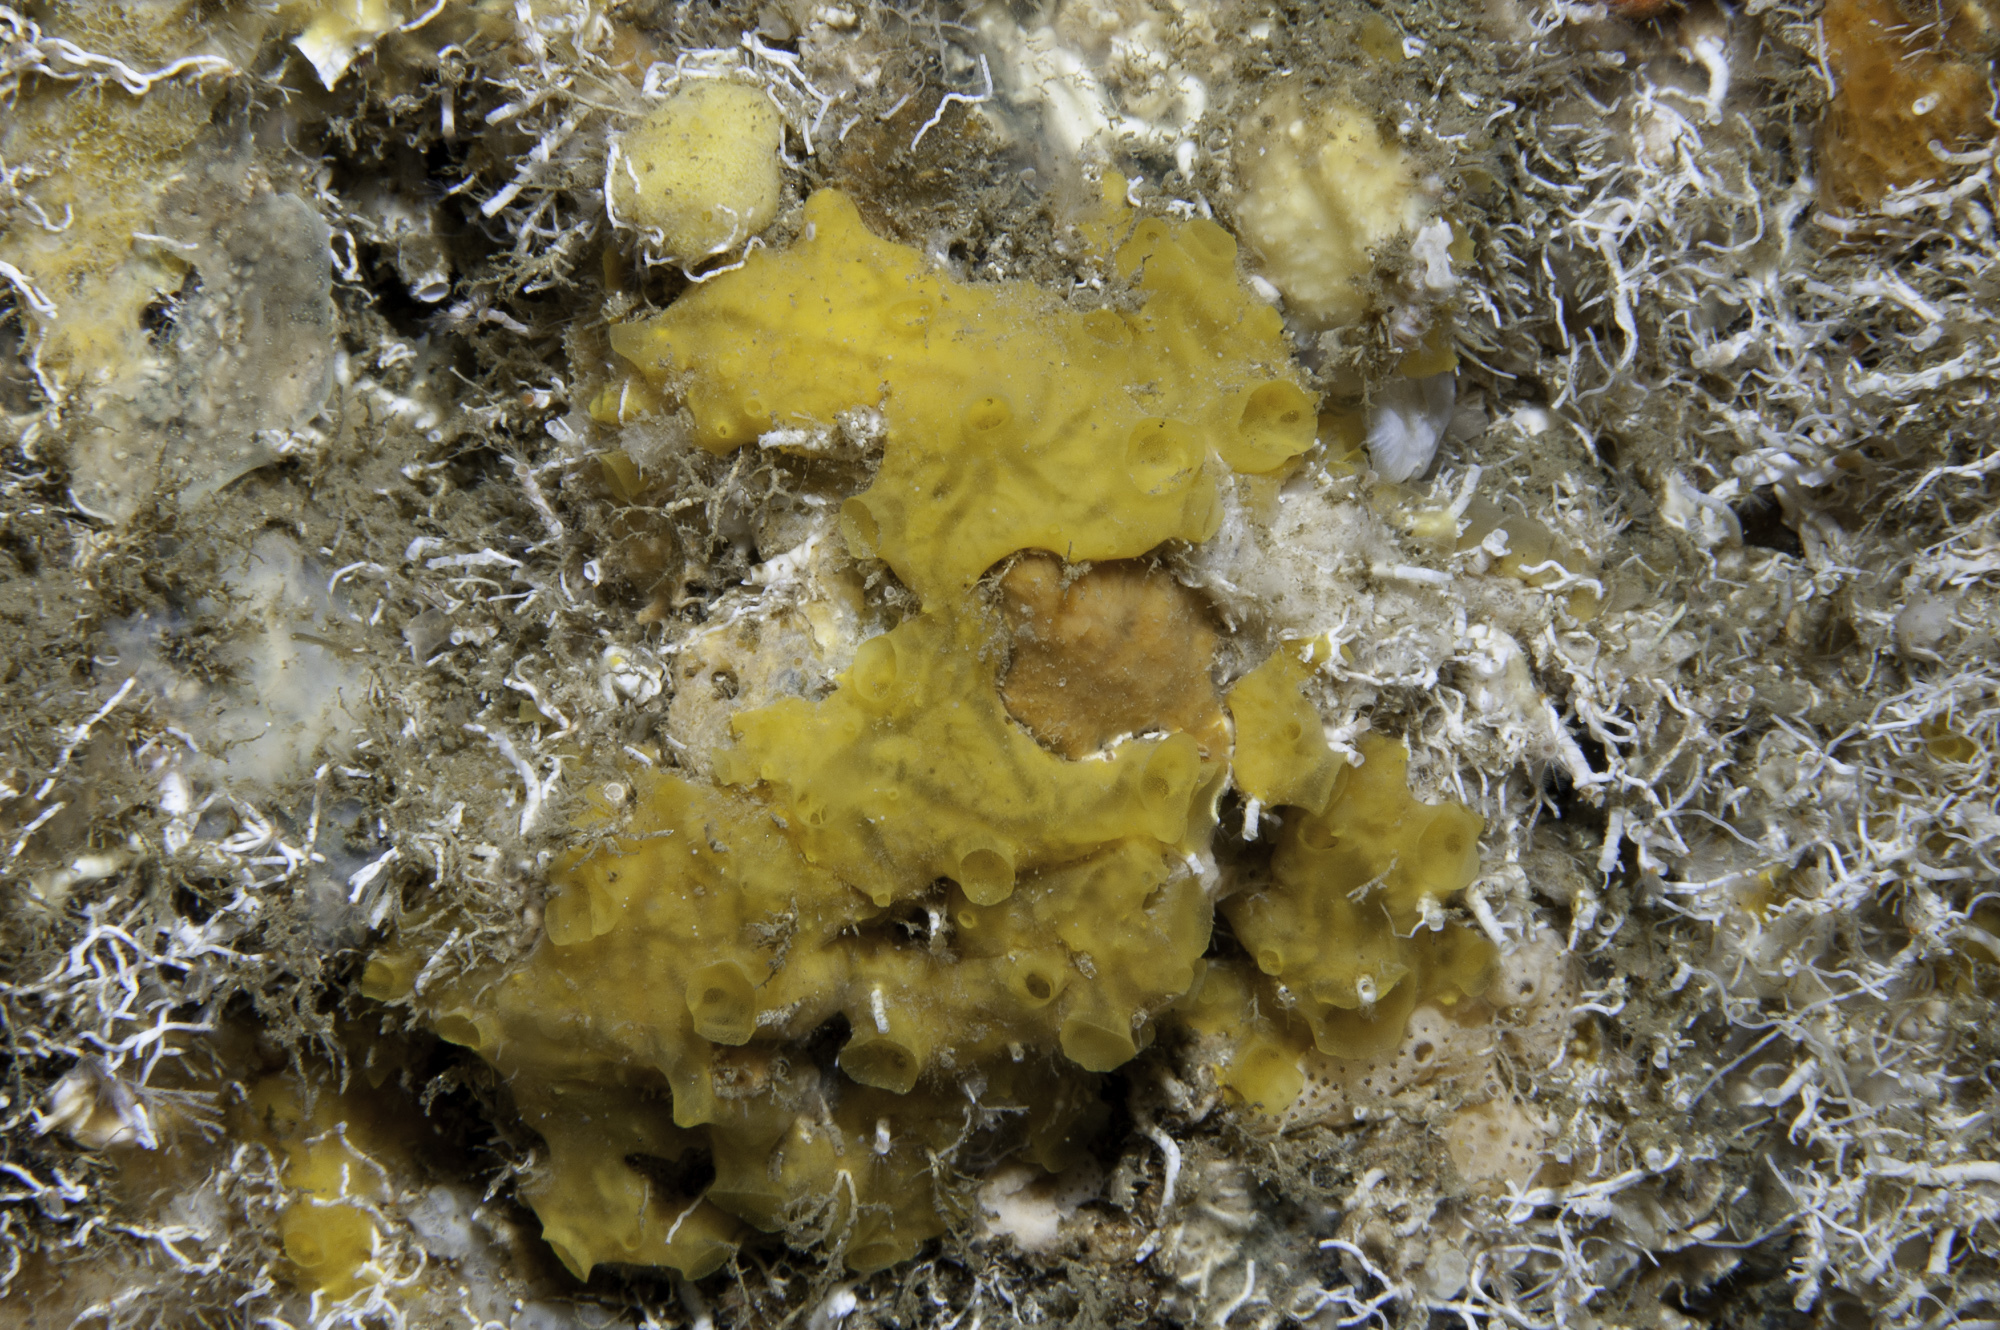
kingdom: Animalia
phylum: Porifera
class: Demospongiae
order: Poecilosclerida
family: Crellidae
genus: Crella
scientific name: Crella pulvinar
